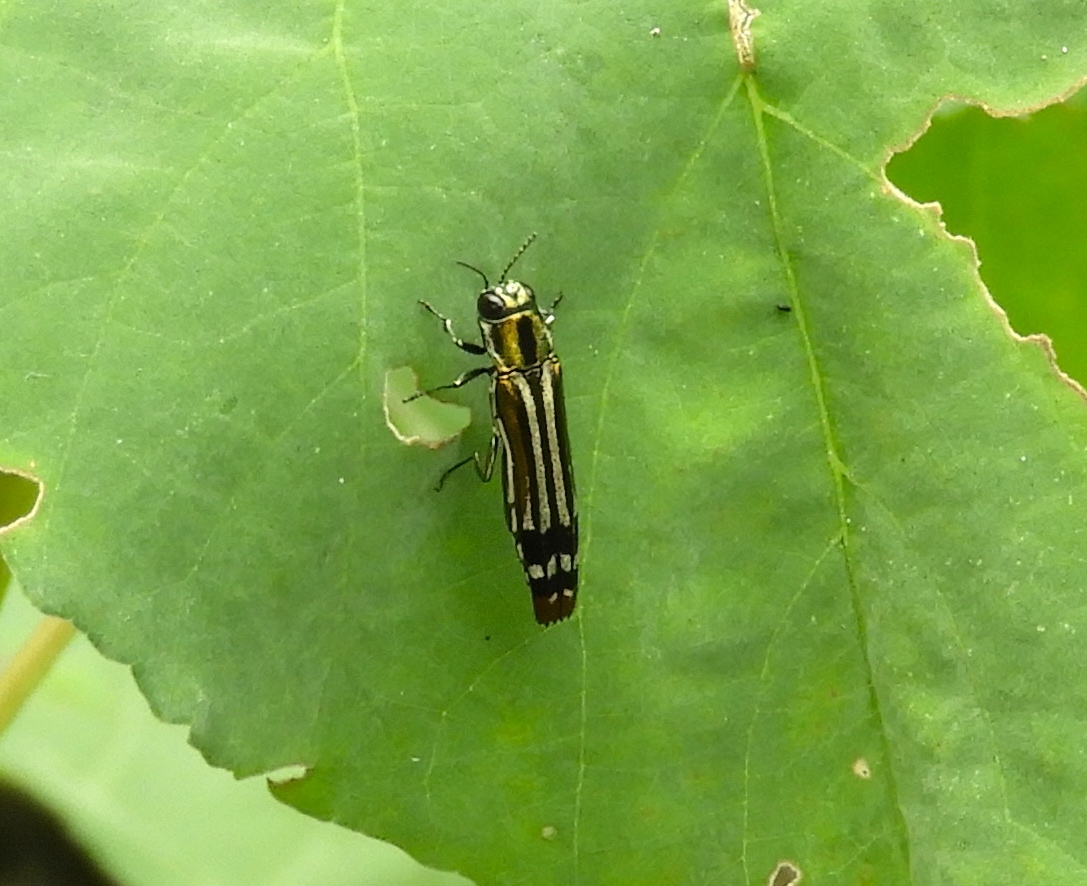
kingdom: Animalia
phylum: Arthropoda
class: Insecta
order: Coleoptera
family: Buprestidae
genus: Agrilus
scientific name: Agrilus catherinae
